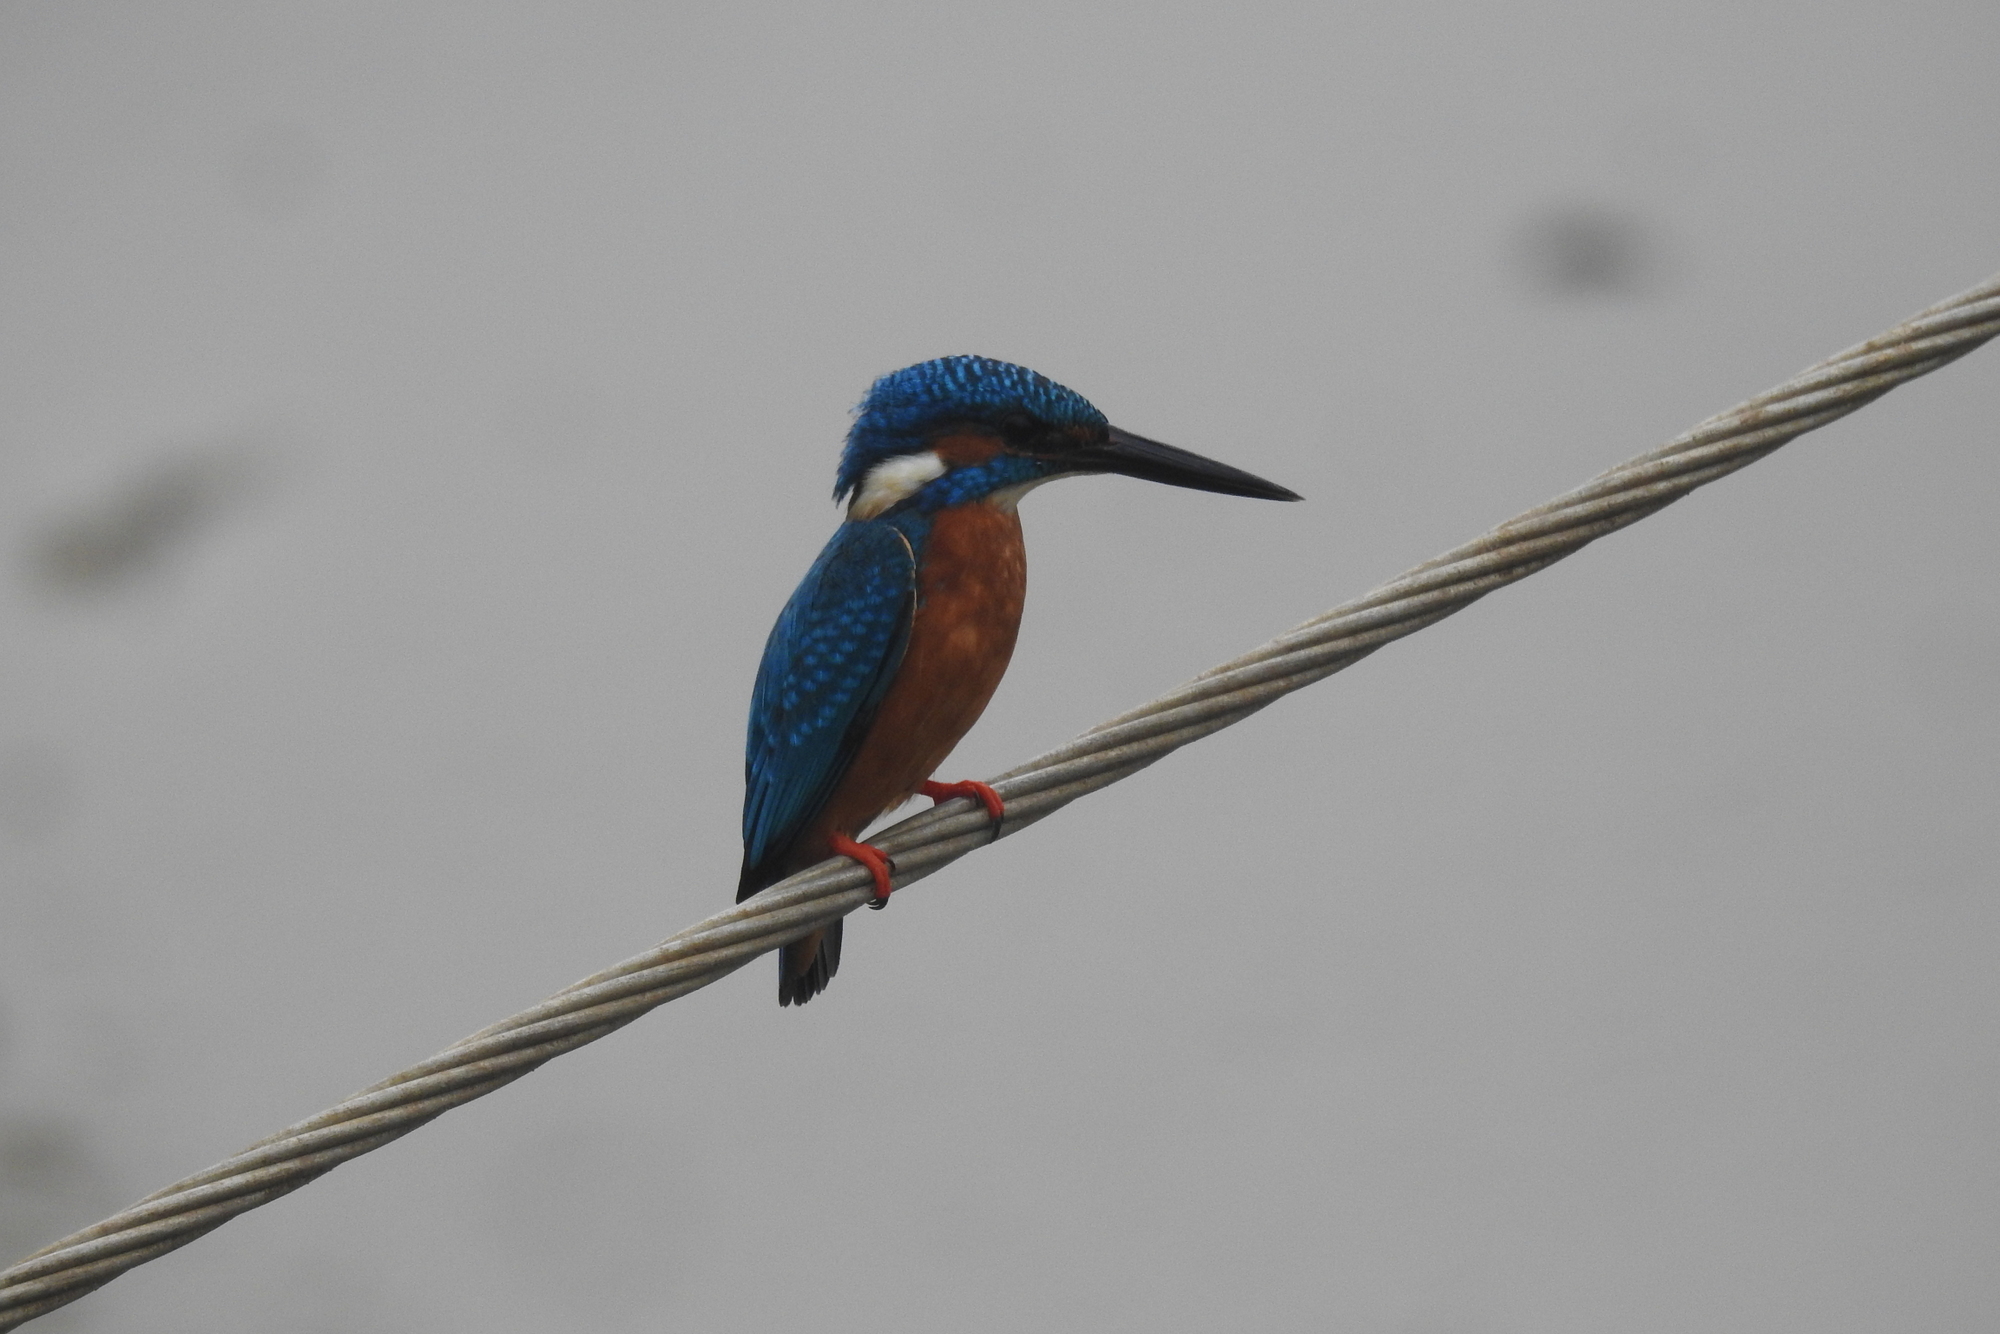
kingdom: Animalia
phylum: Chordata
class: Aves
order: Coraciiformes
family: Alcedinidae
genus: Alcedo
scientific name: Alcedo atthis
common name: Common kingfisher
